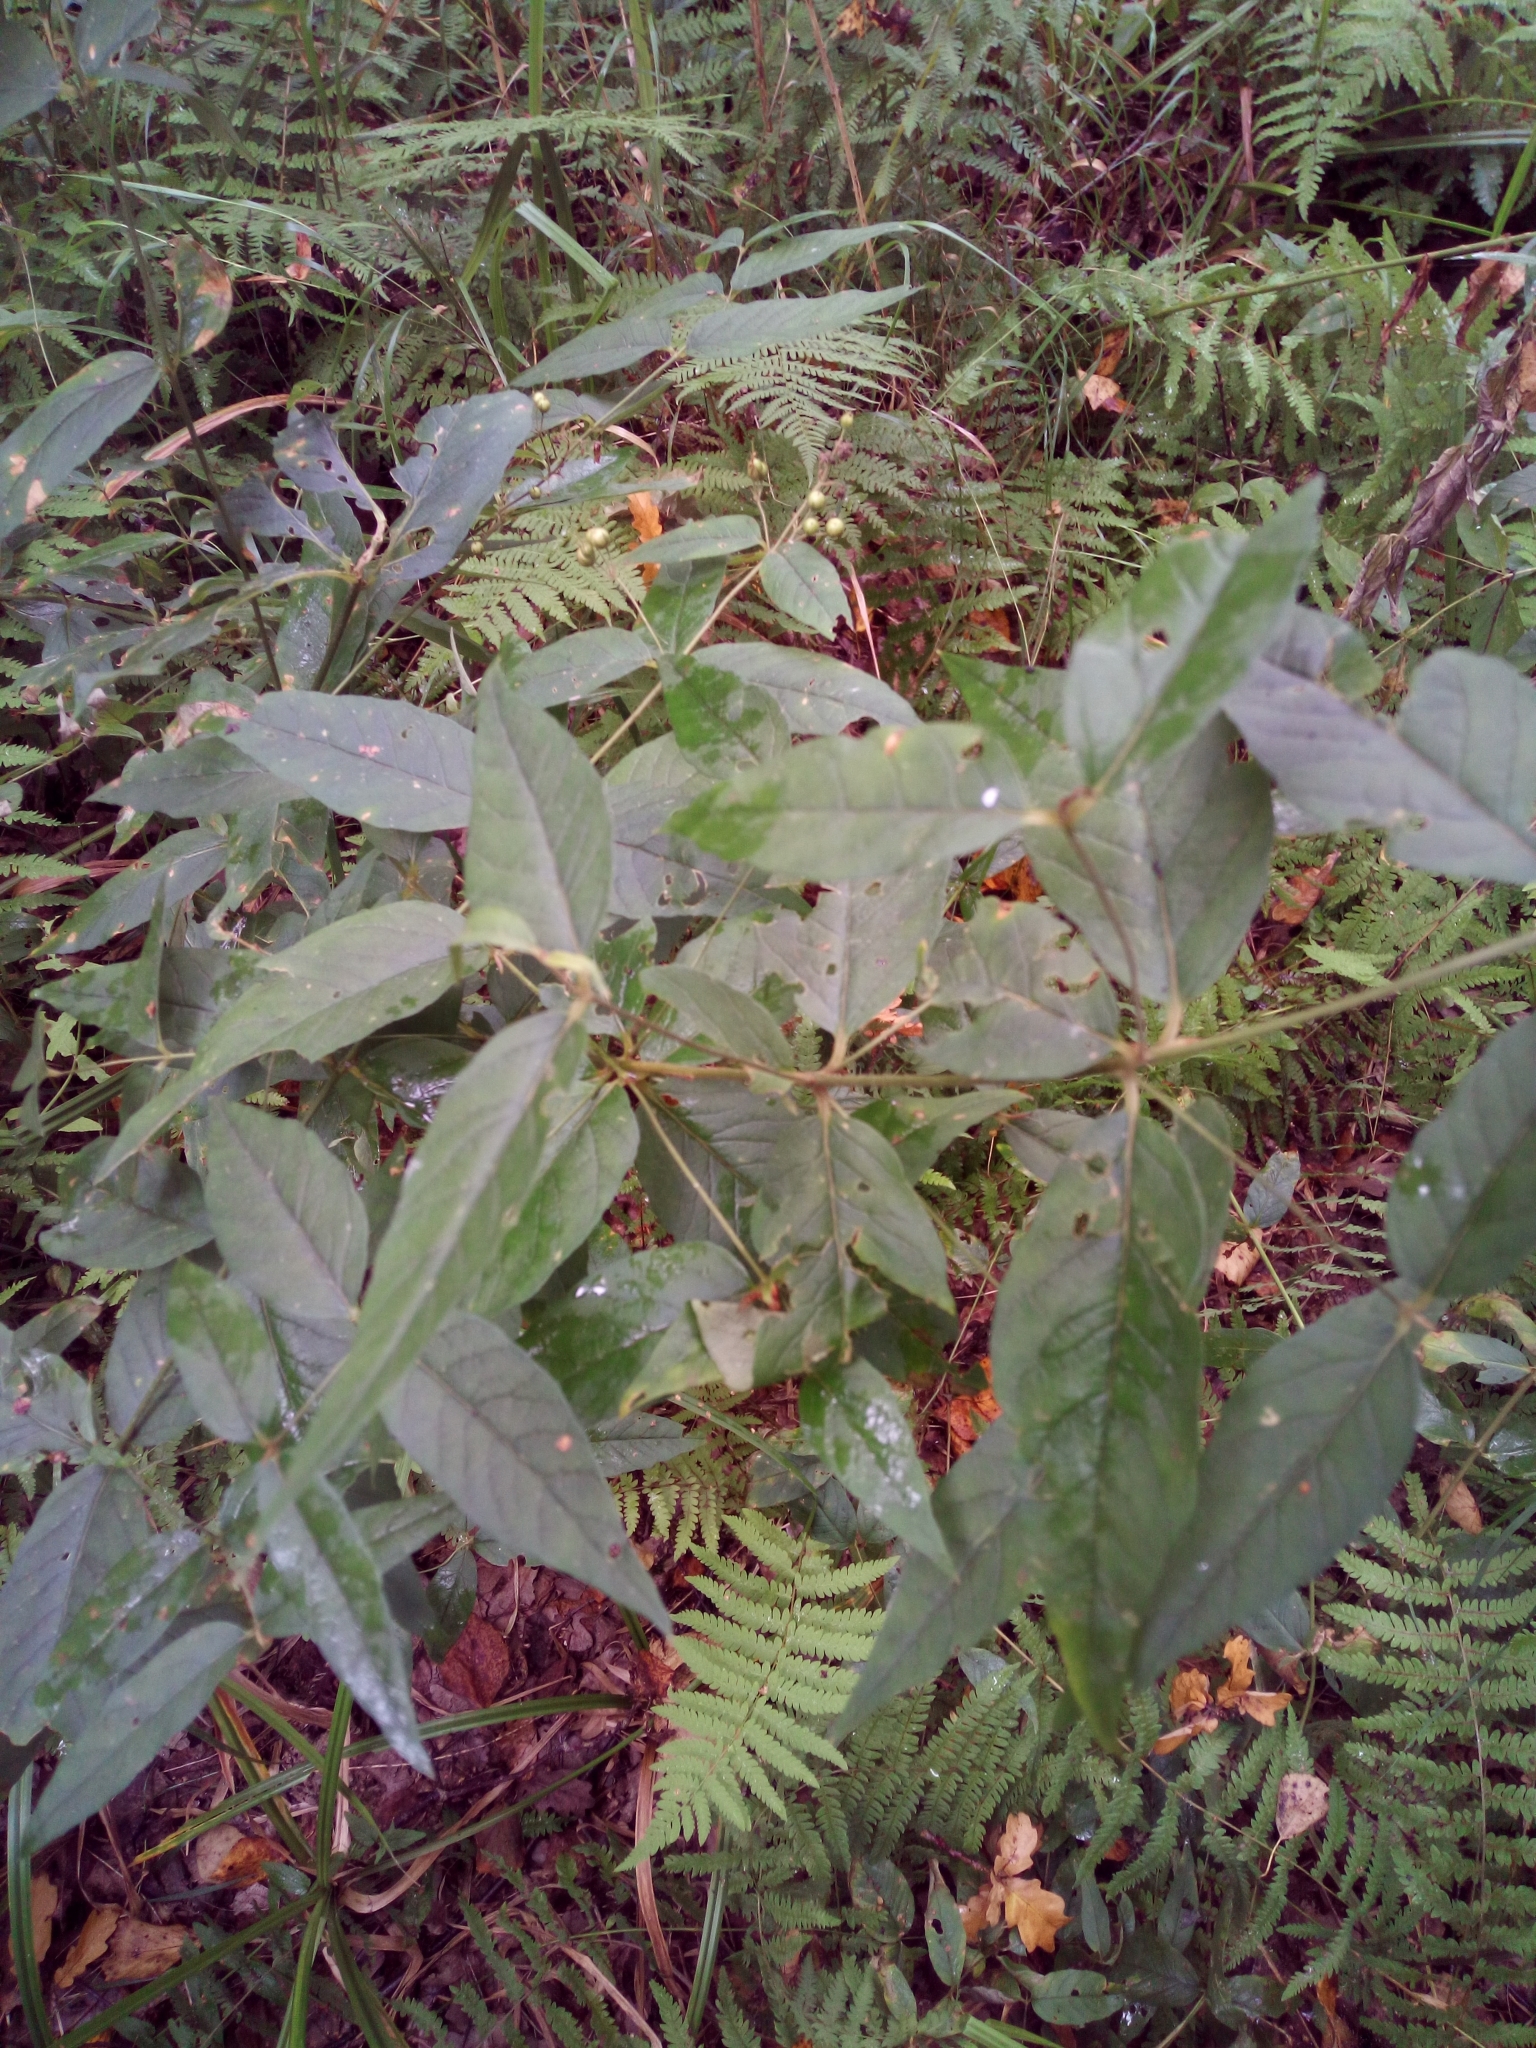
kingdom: Plantae
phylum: Tracheophyta
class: Magnoliopsida
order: Ericales
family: Primulaceae
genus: Lysimachia
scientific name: Lysimachia vulgaris
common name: Yellow loosestrife
